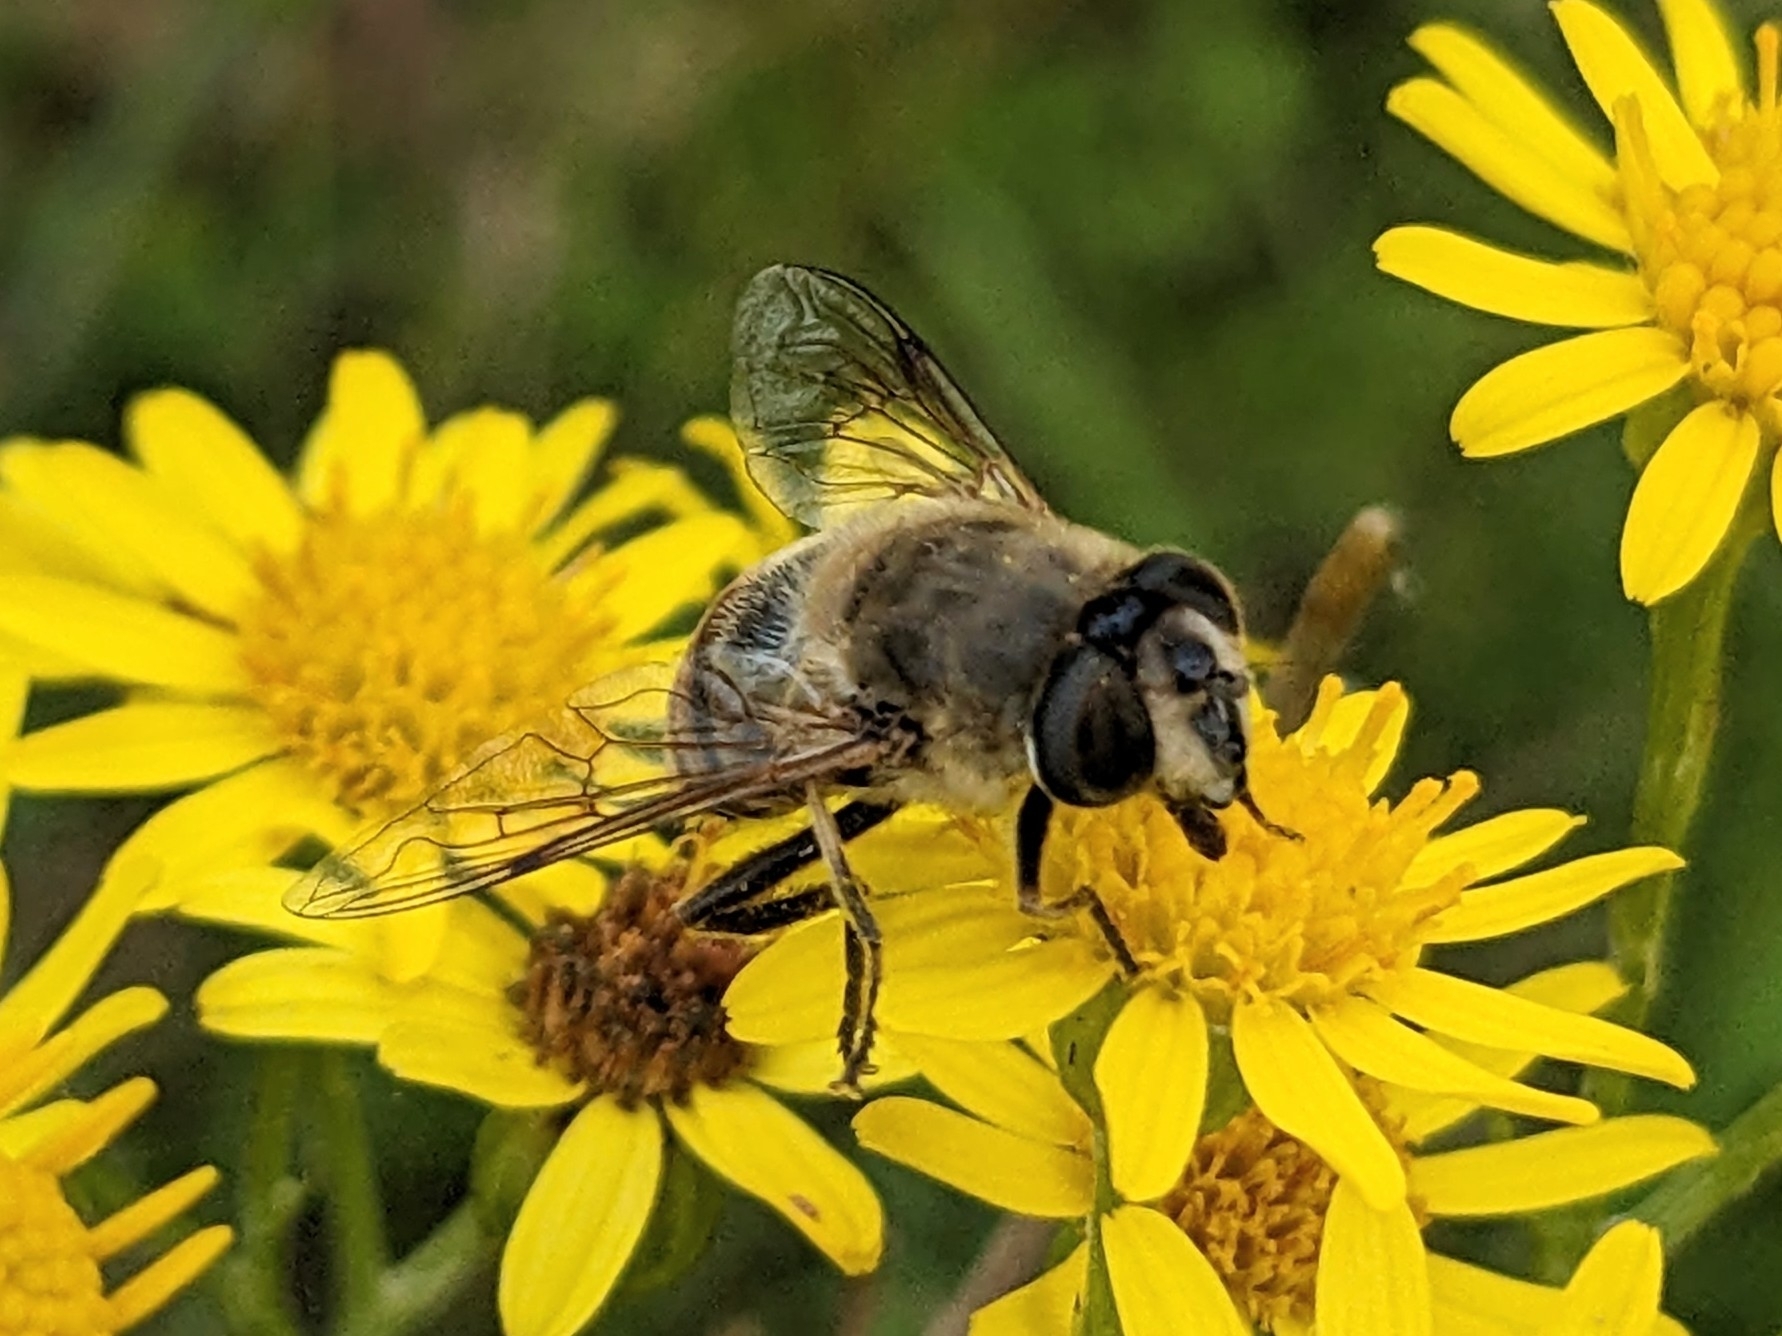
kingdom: Animalia
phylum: Arthropoda
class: Insecta
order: Diptera
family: Syrphidae
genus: Eristalis
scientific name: Eristalis tenax
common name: Drone fly
